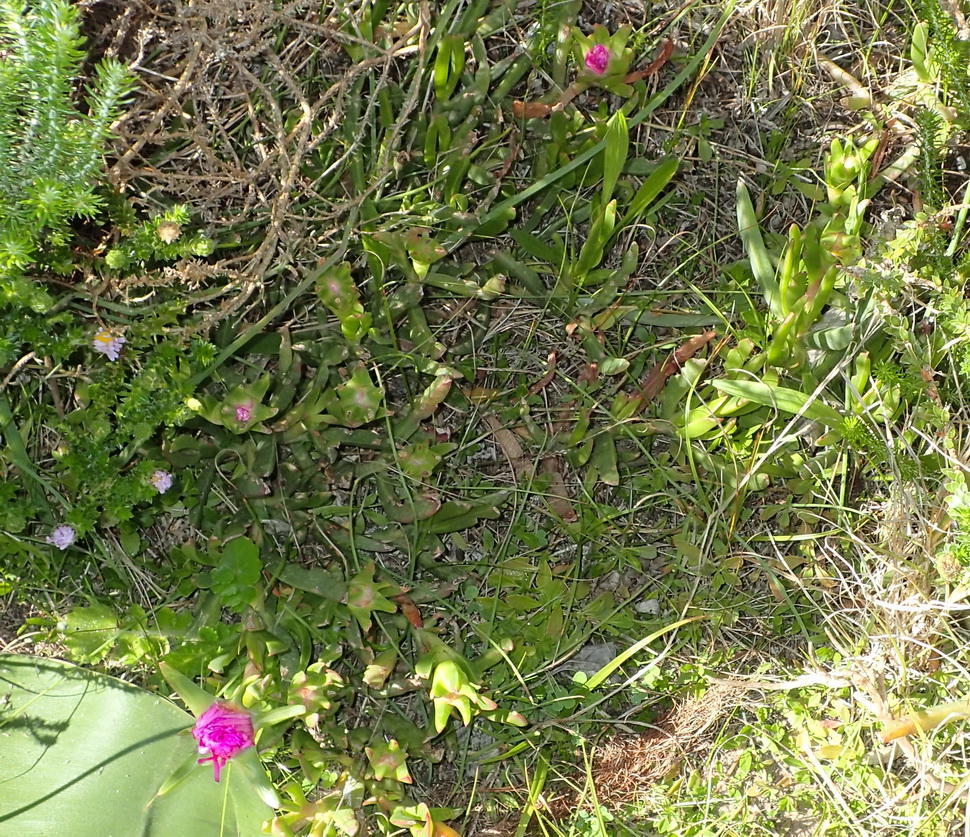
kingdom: Plantae
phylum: Tracheophyta
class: Magnoliopsida
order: Caryophyllales
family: Aizoaceae
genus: Carpobrotus
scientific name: Carpobrotus deliciosus
